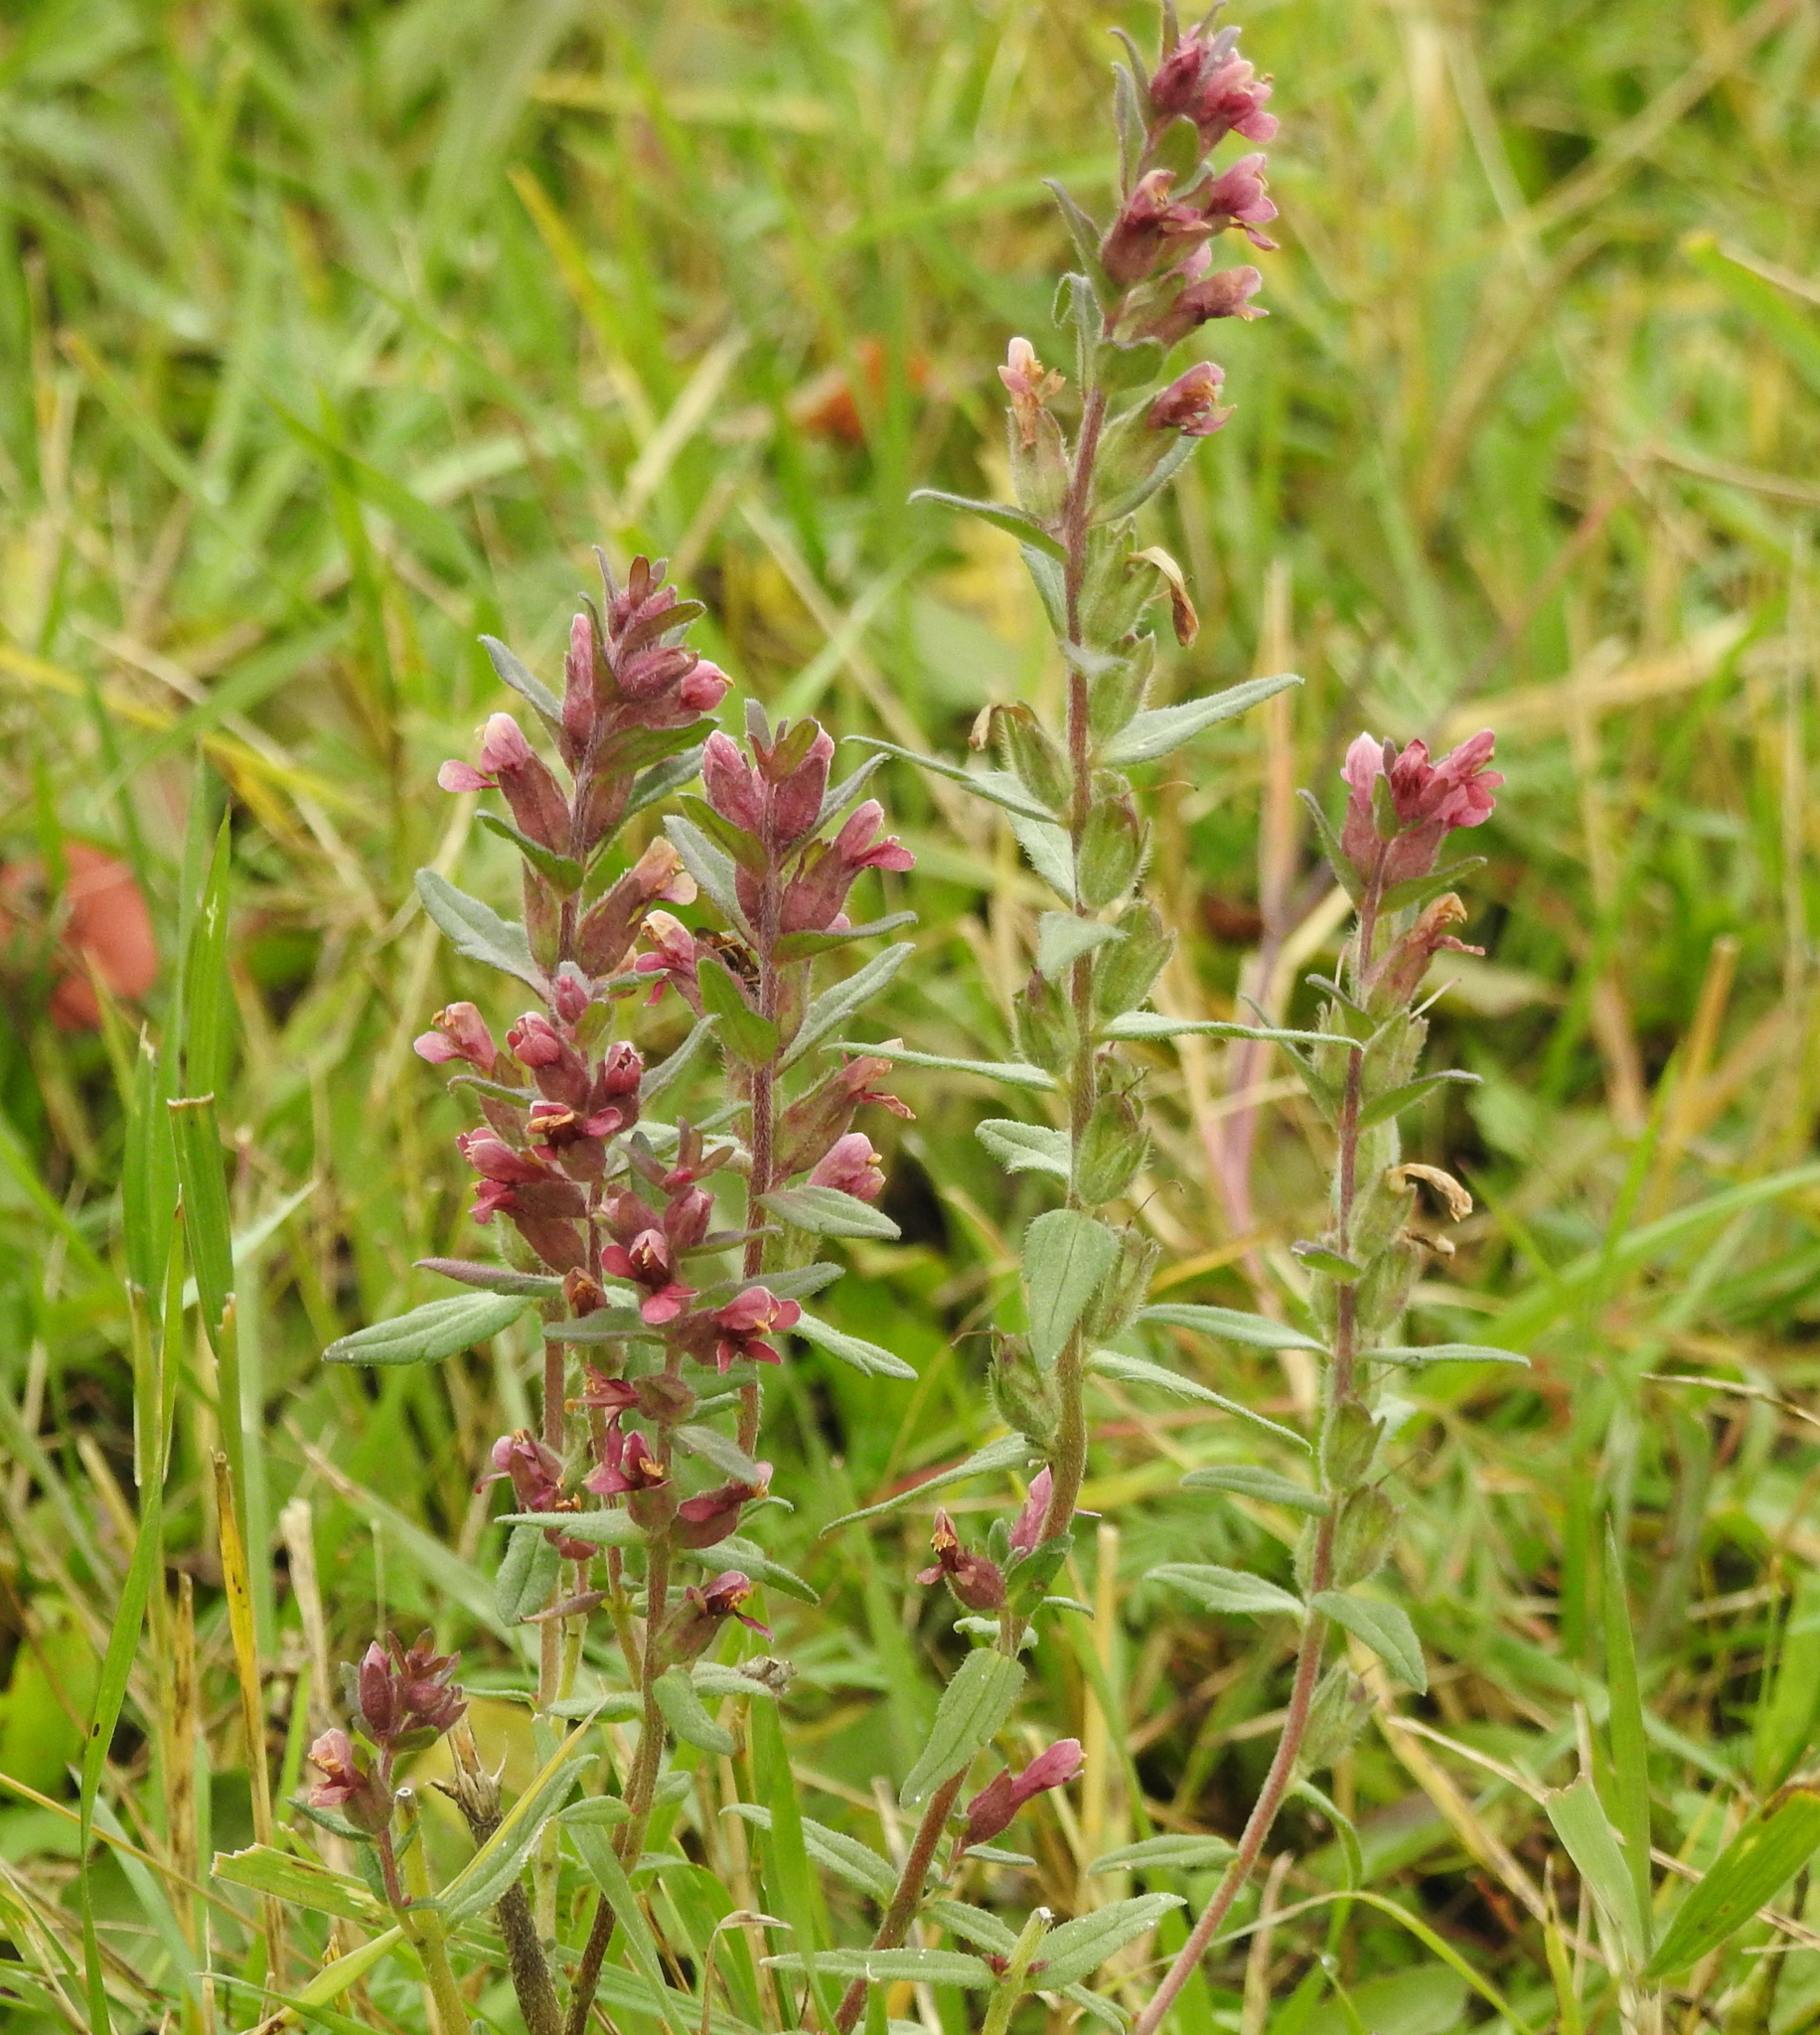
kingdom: Plantae
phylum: Tracheophyta
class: Magnoliopsida
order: Lamiales
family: Orobanchaceae
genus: Odontites
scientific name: Odontites vulgaris
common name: Broomrape
